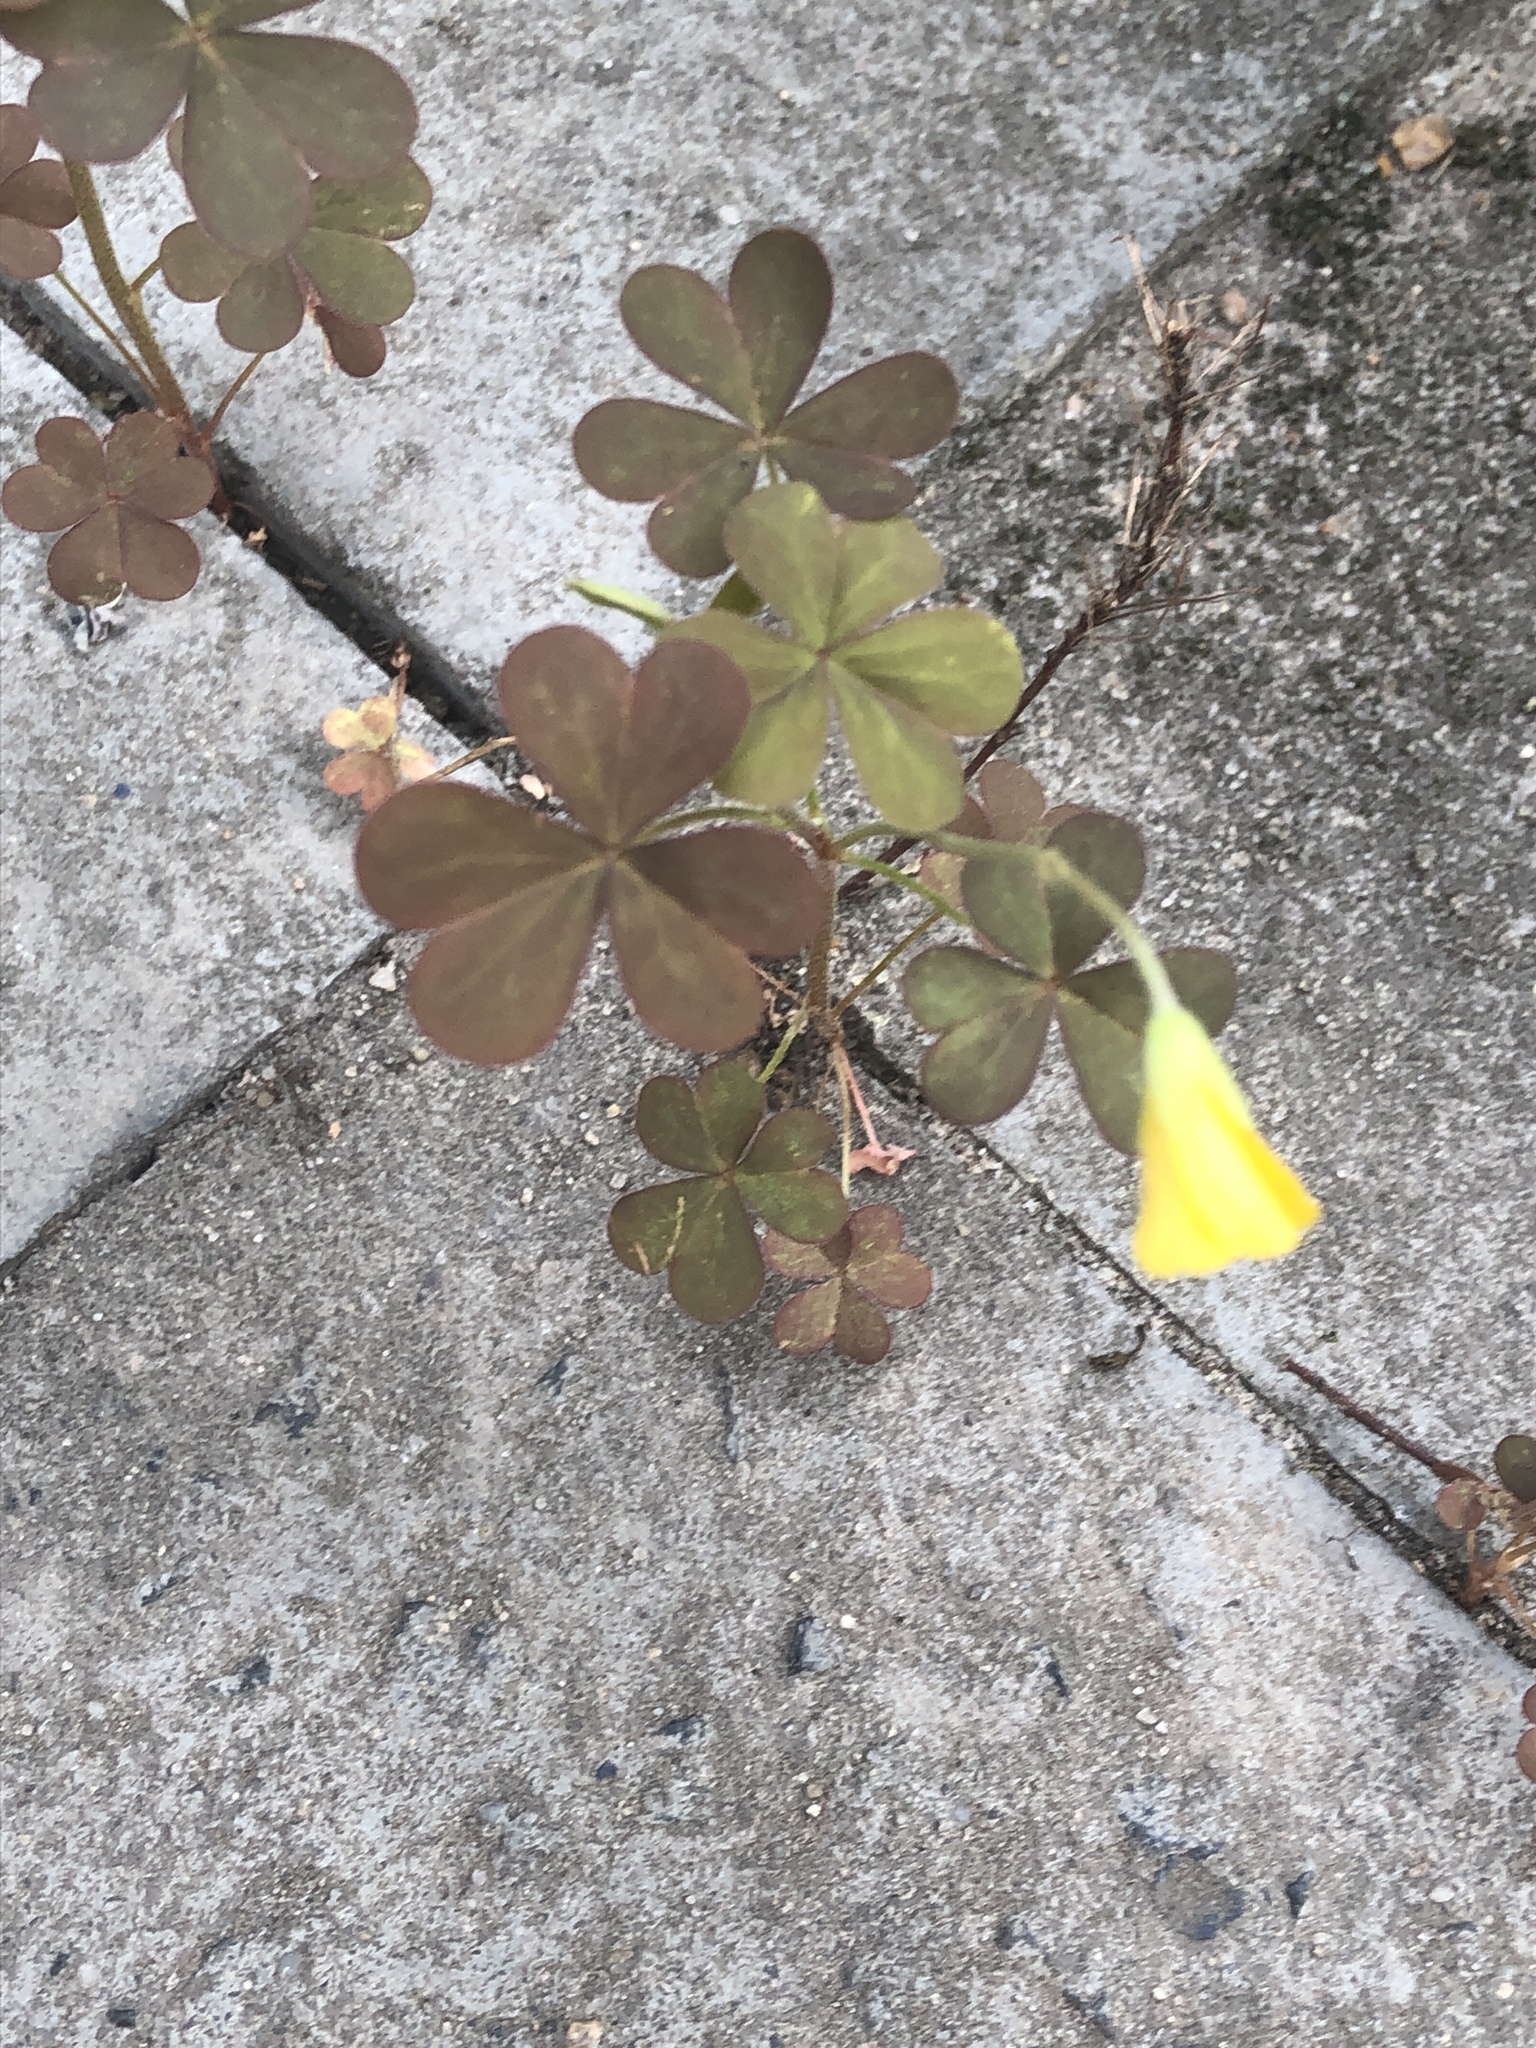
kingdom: Plantae
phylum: Tracheophyta
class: Magnoliopsida
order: Oxalidales
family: Oxalidaceae
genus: Oxalis
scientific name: Oxalis corniculata
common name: Procumbent yellow-sorrel
